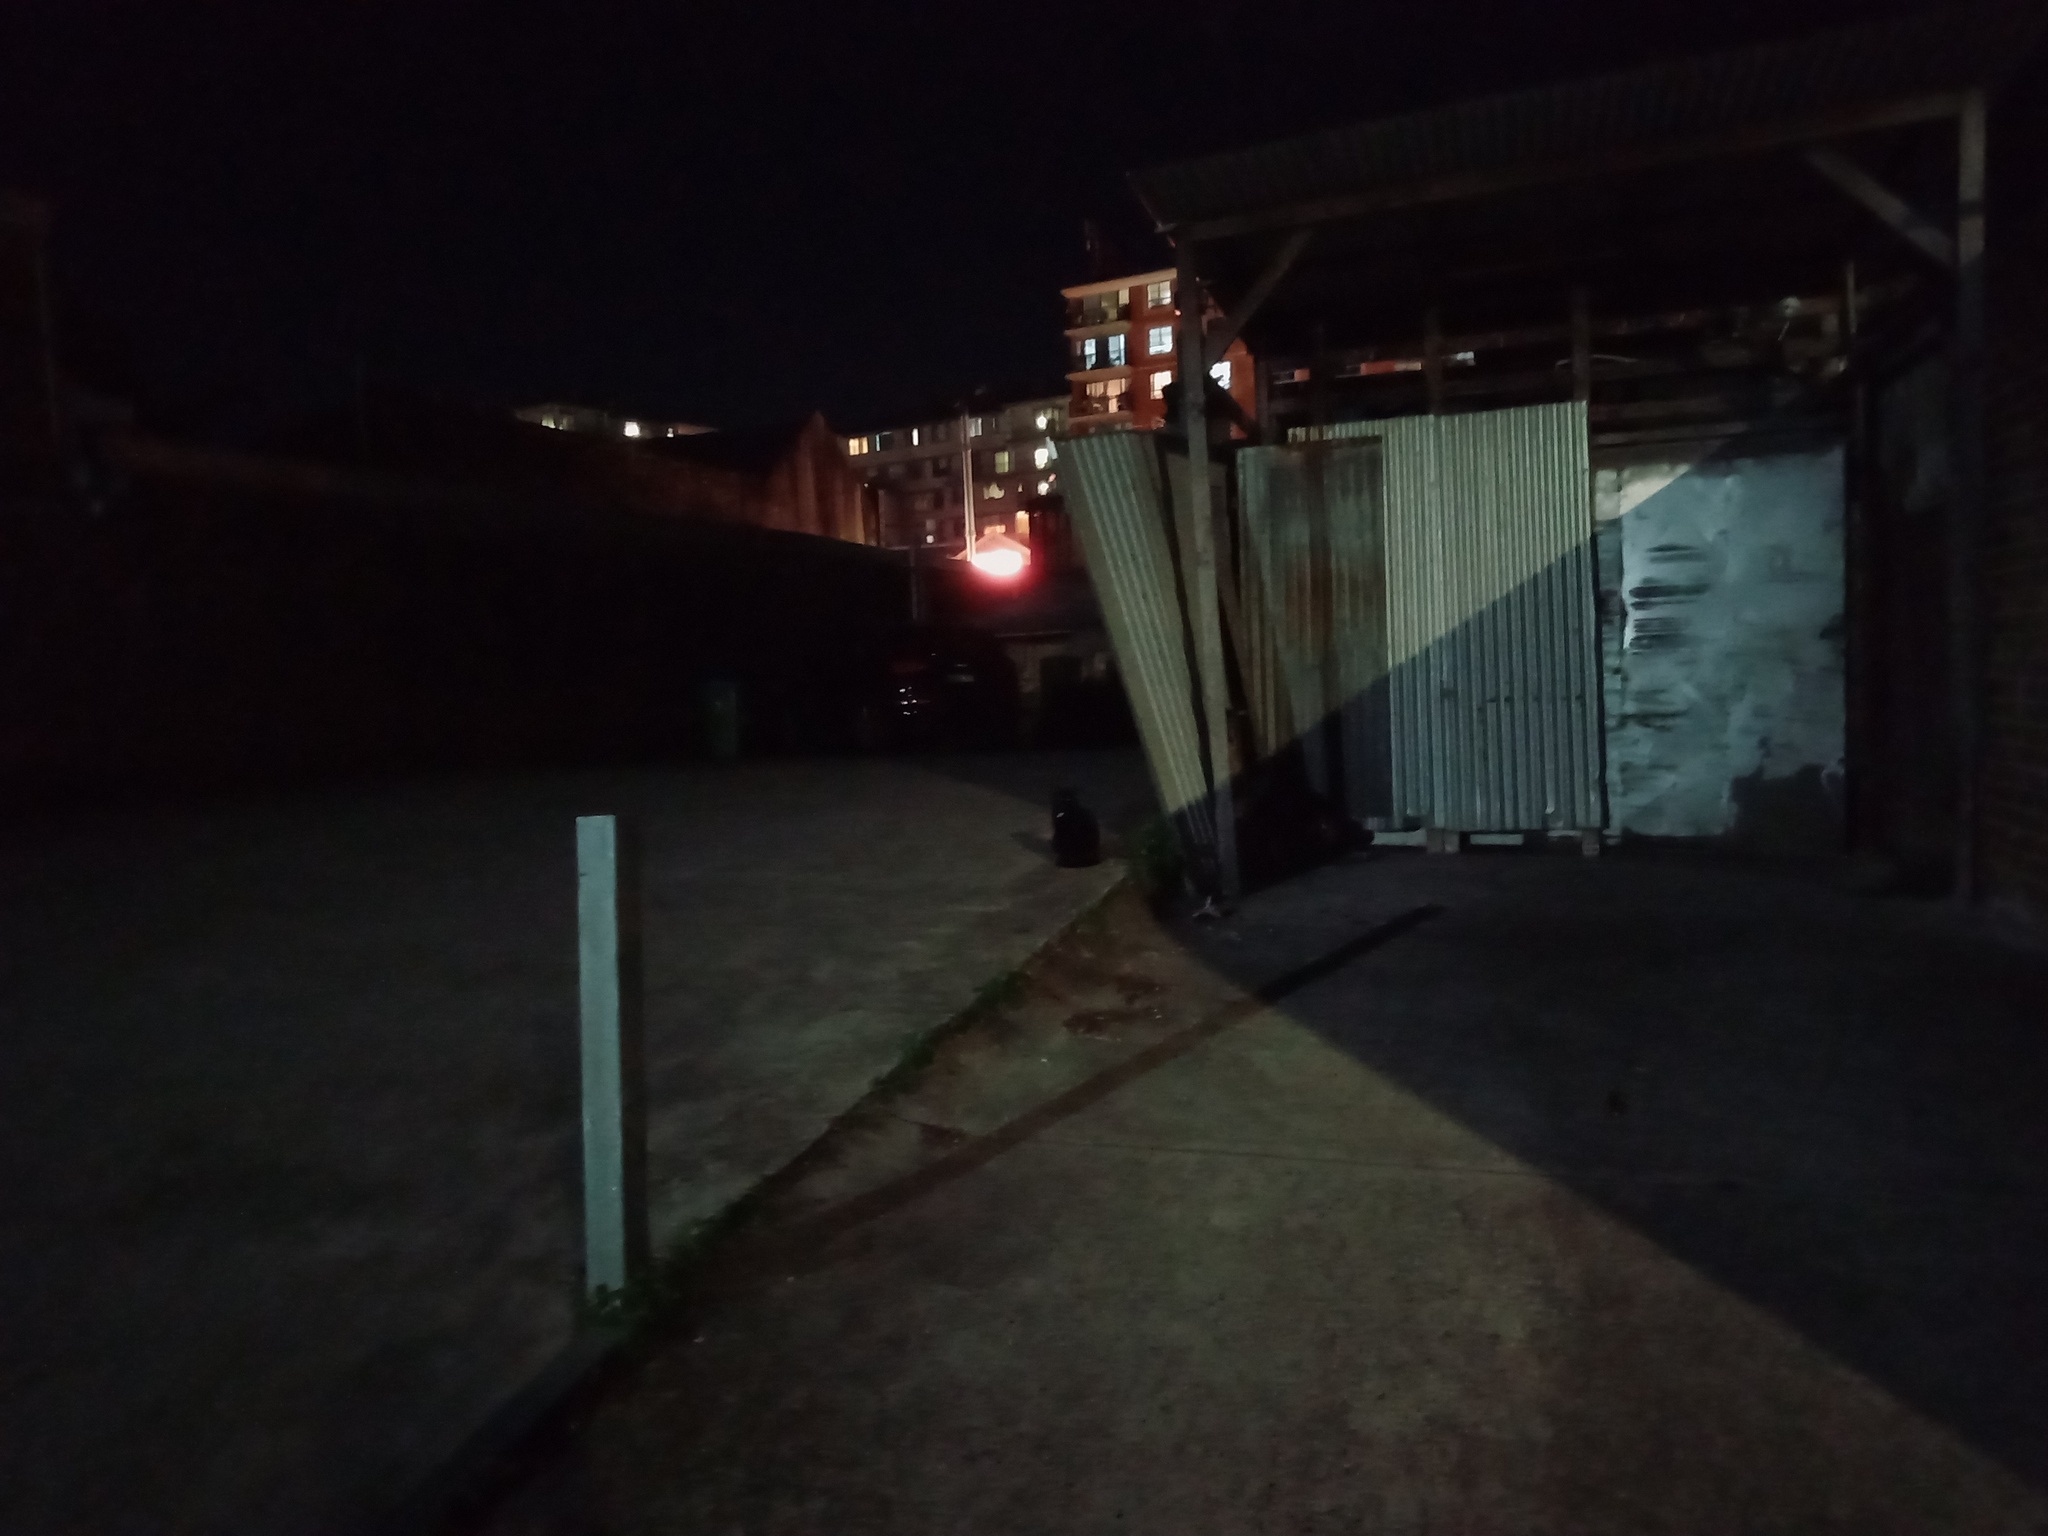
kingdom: Animalia
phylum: Chordata
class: Mammalia
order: Carnivora
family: Felidae
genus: Felis
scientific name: Felis catus
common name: Domestic cat
